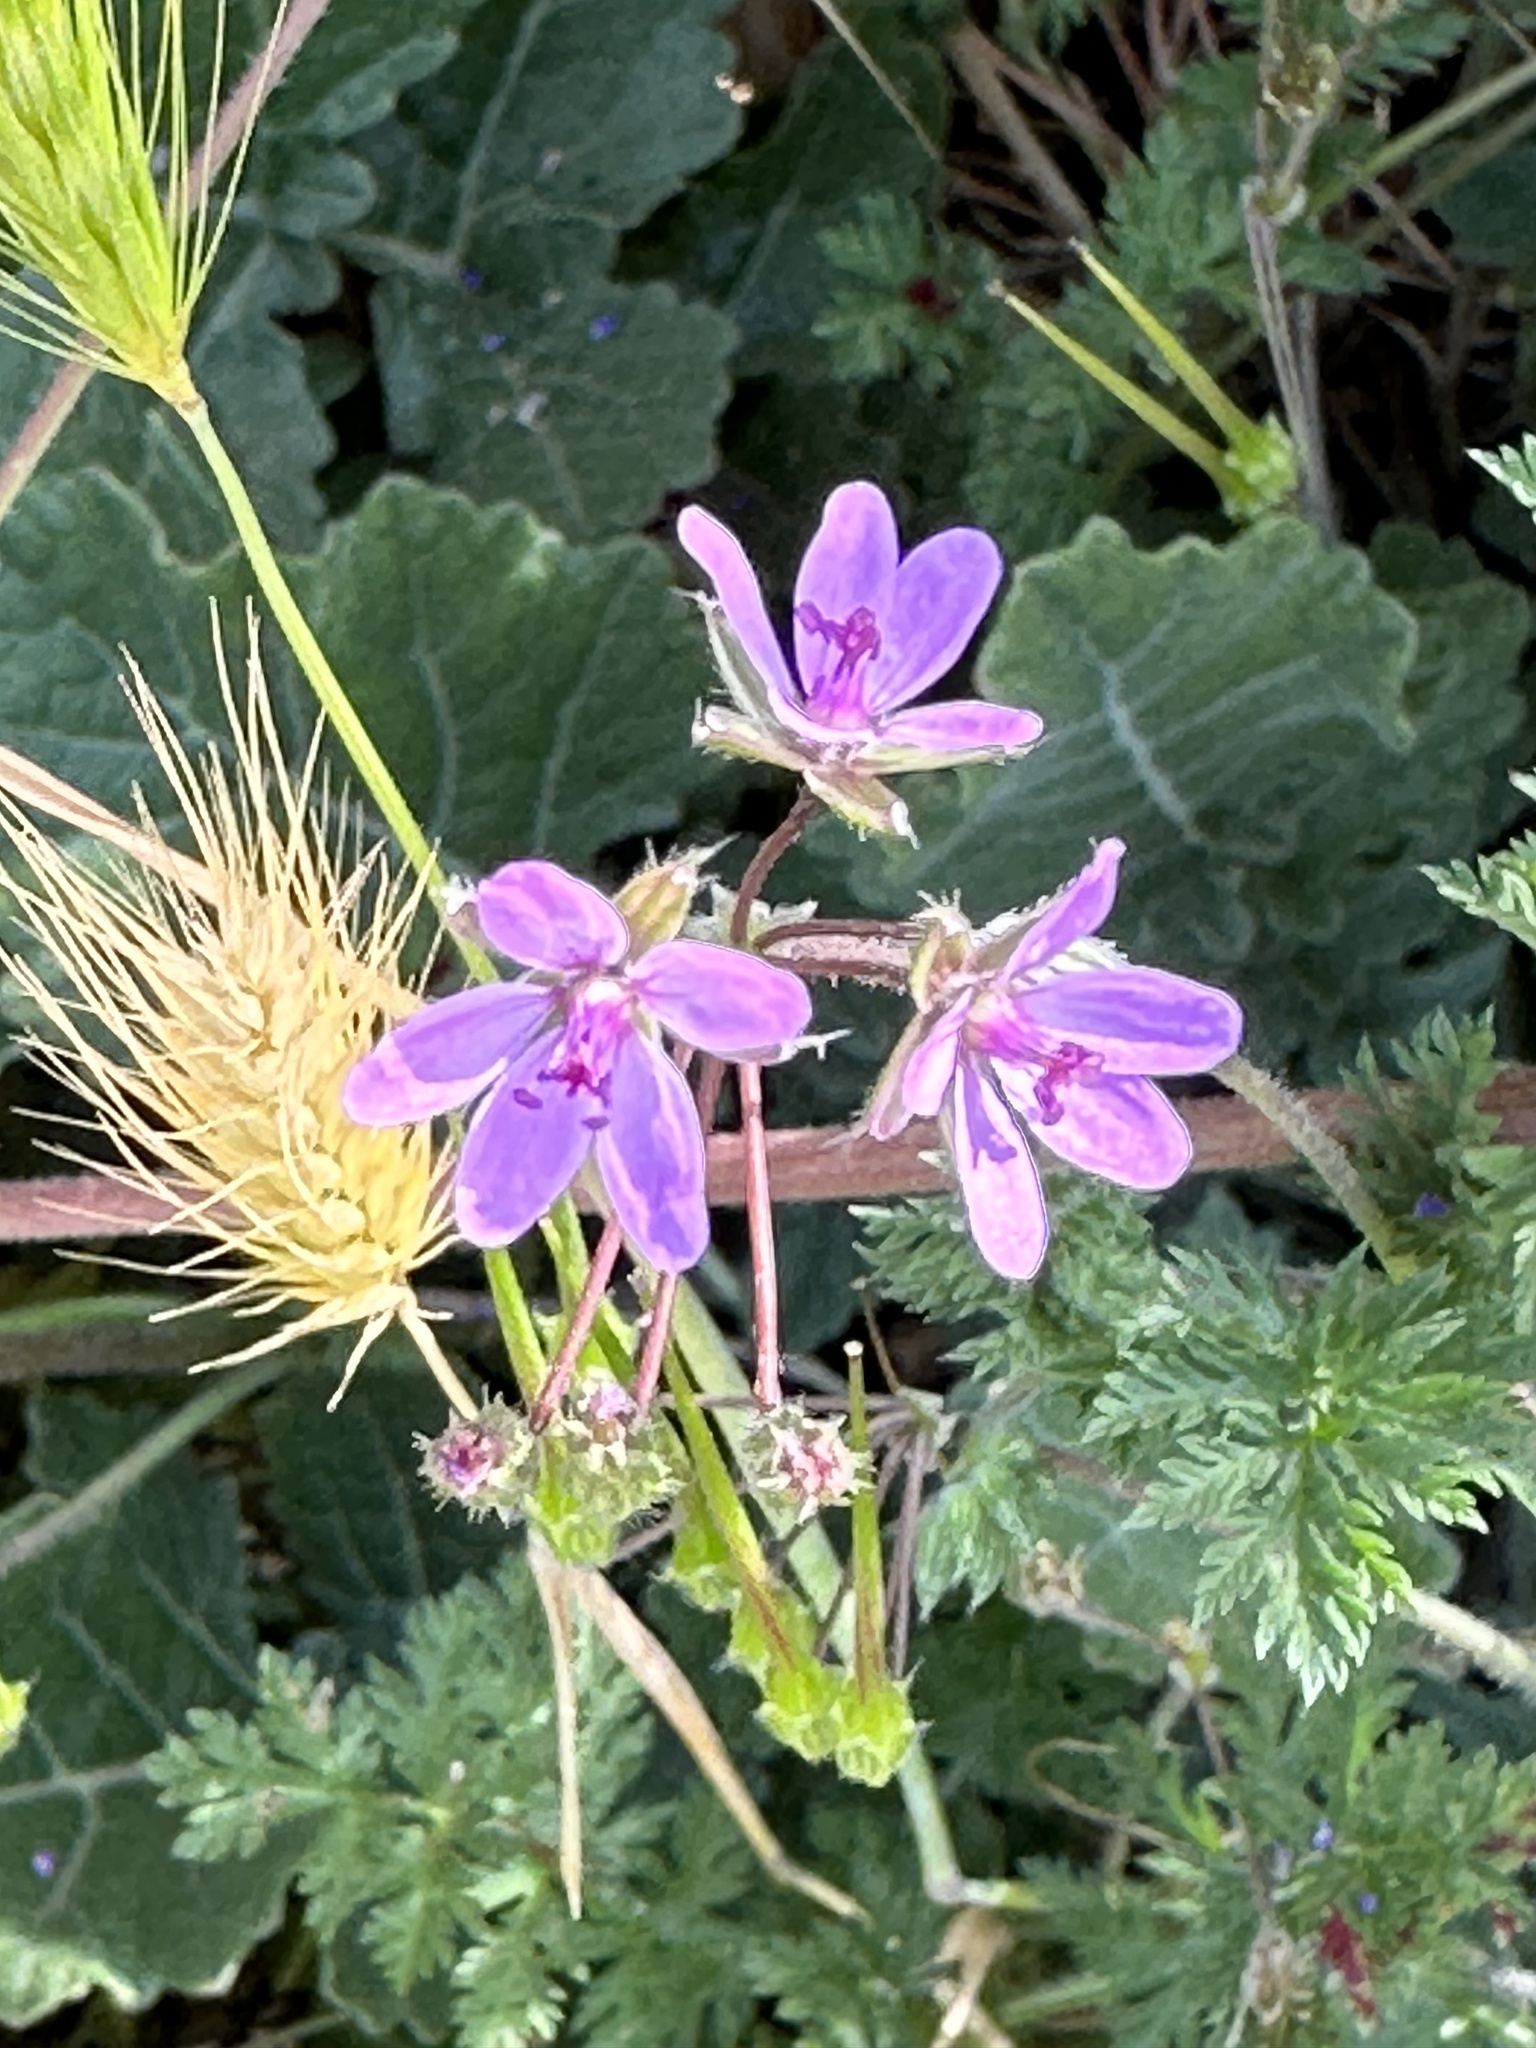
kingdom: Plantae
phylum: Tracheophyta
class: Magnoliopsida
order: Geraniales
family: Geraniaceae
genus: Erodium
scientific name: Erodium cicutarium
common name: Common stork's-bill
